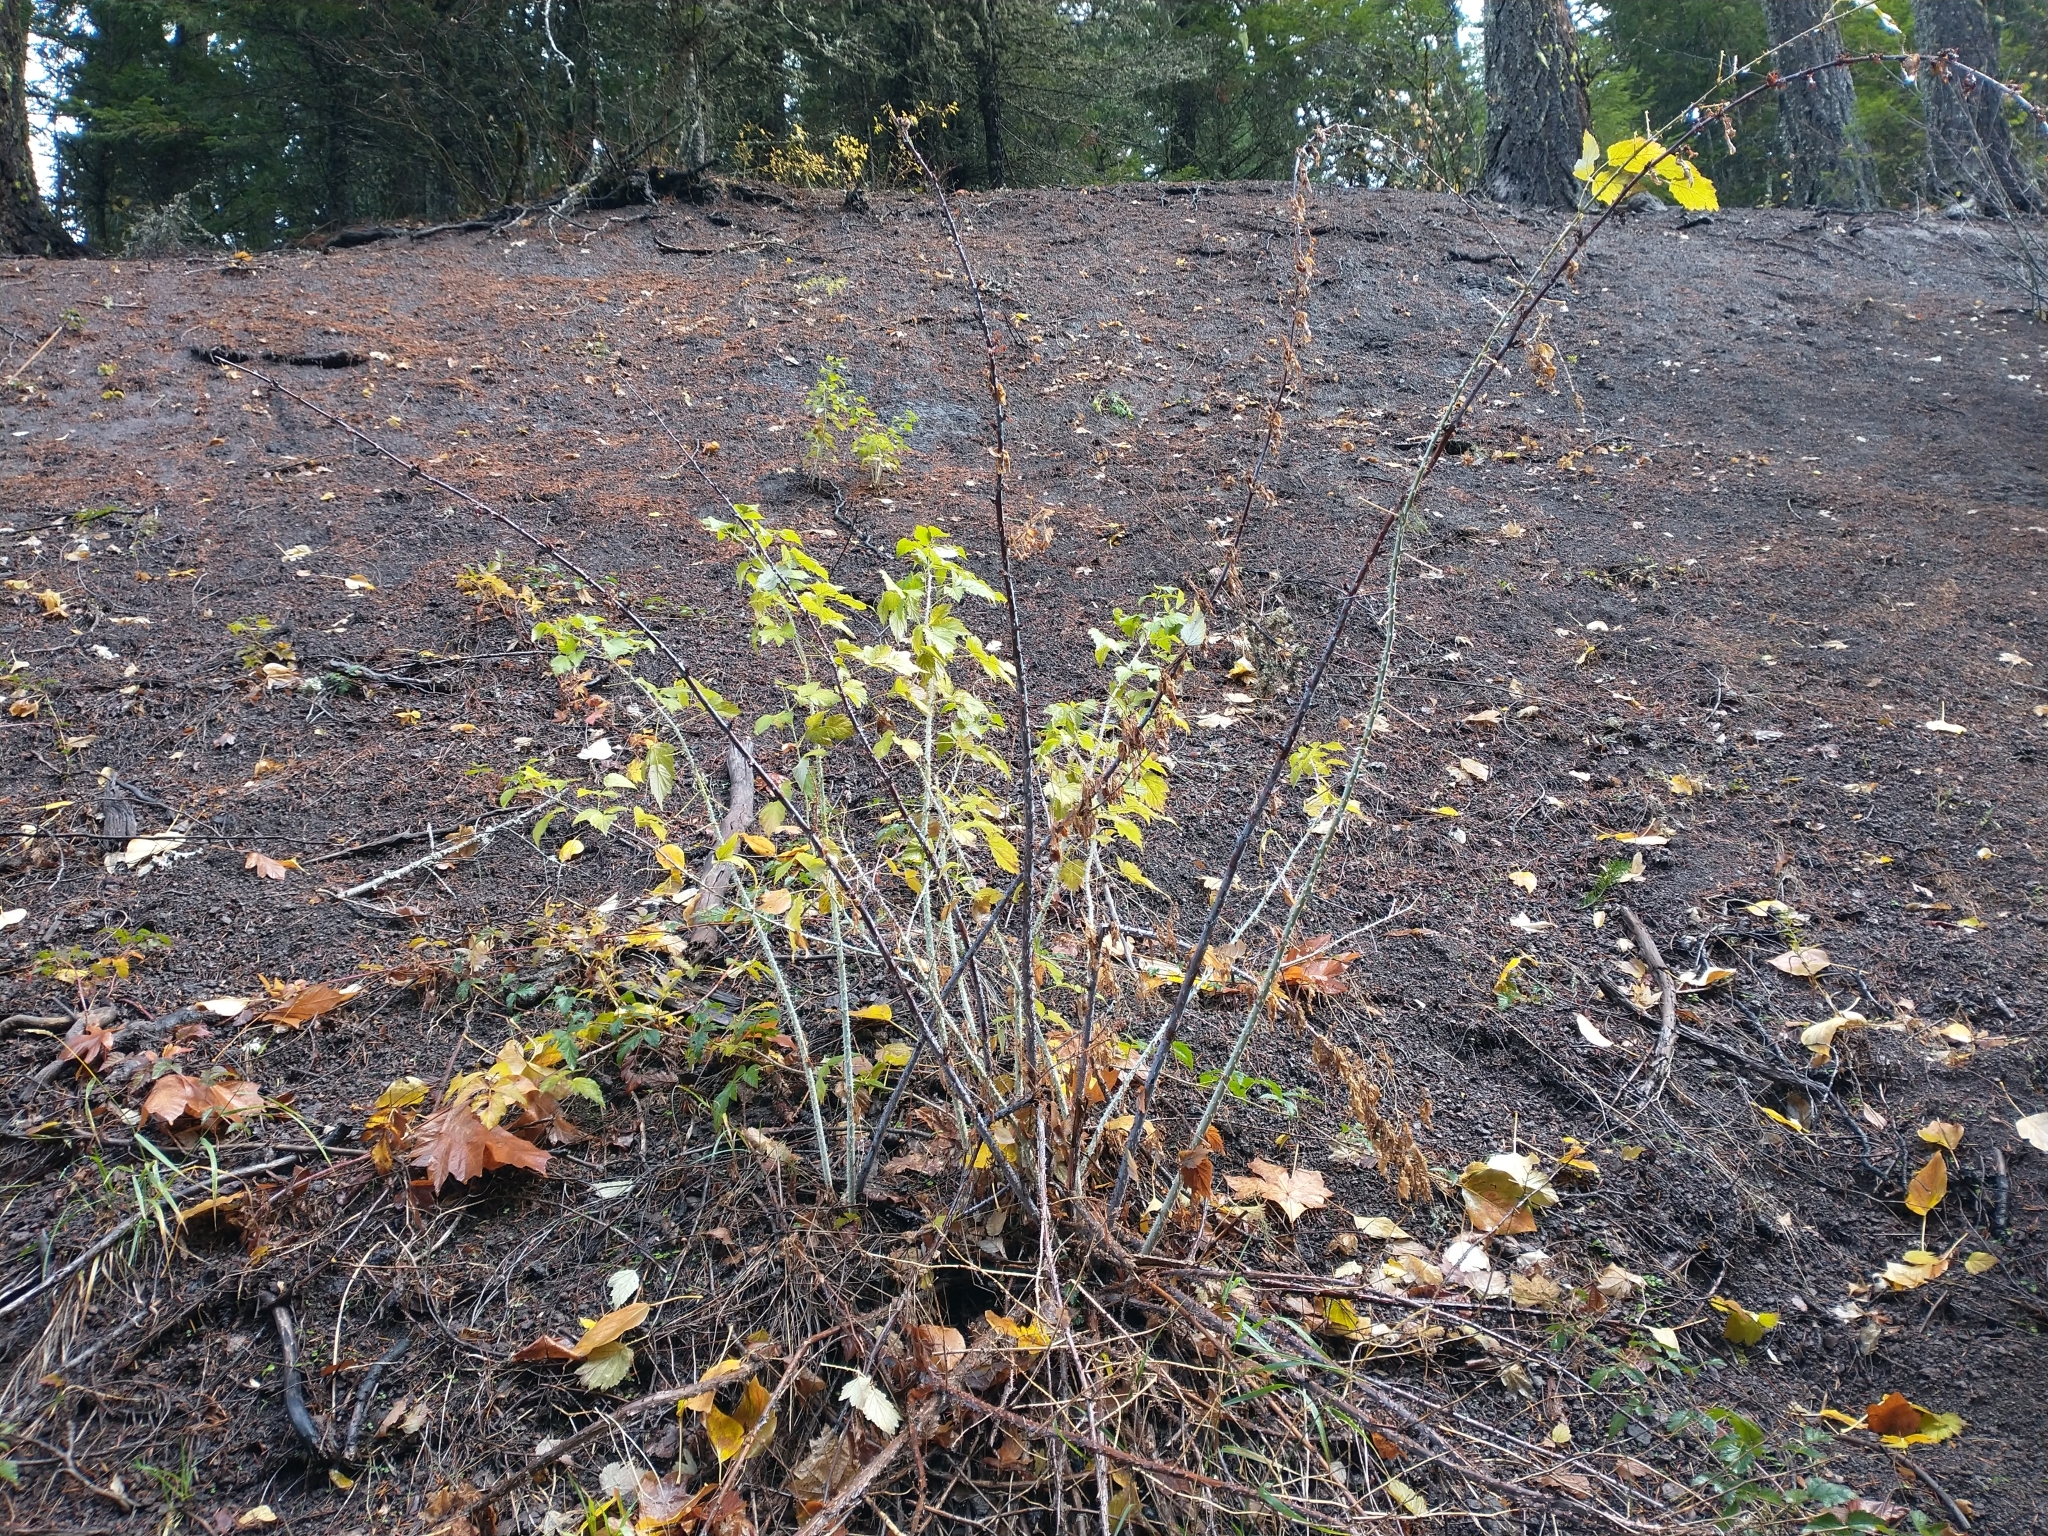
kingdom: Plantae
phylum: Tracheophyta
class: Magnoliopsida
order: Rosales
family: Rosaceae
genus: Rubus
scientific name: Rubus leucodermis
